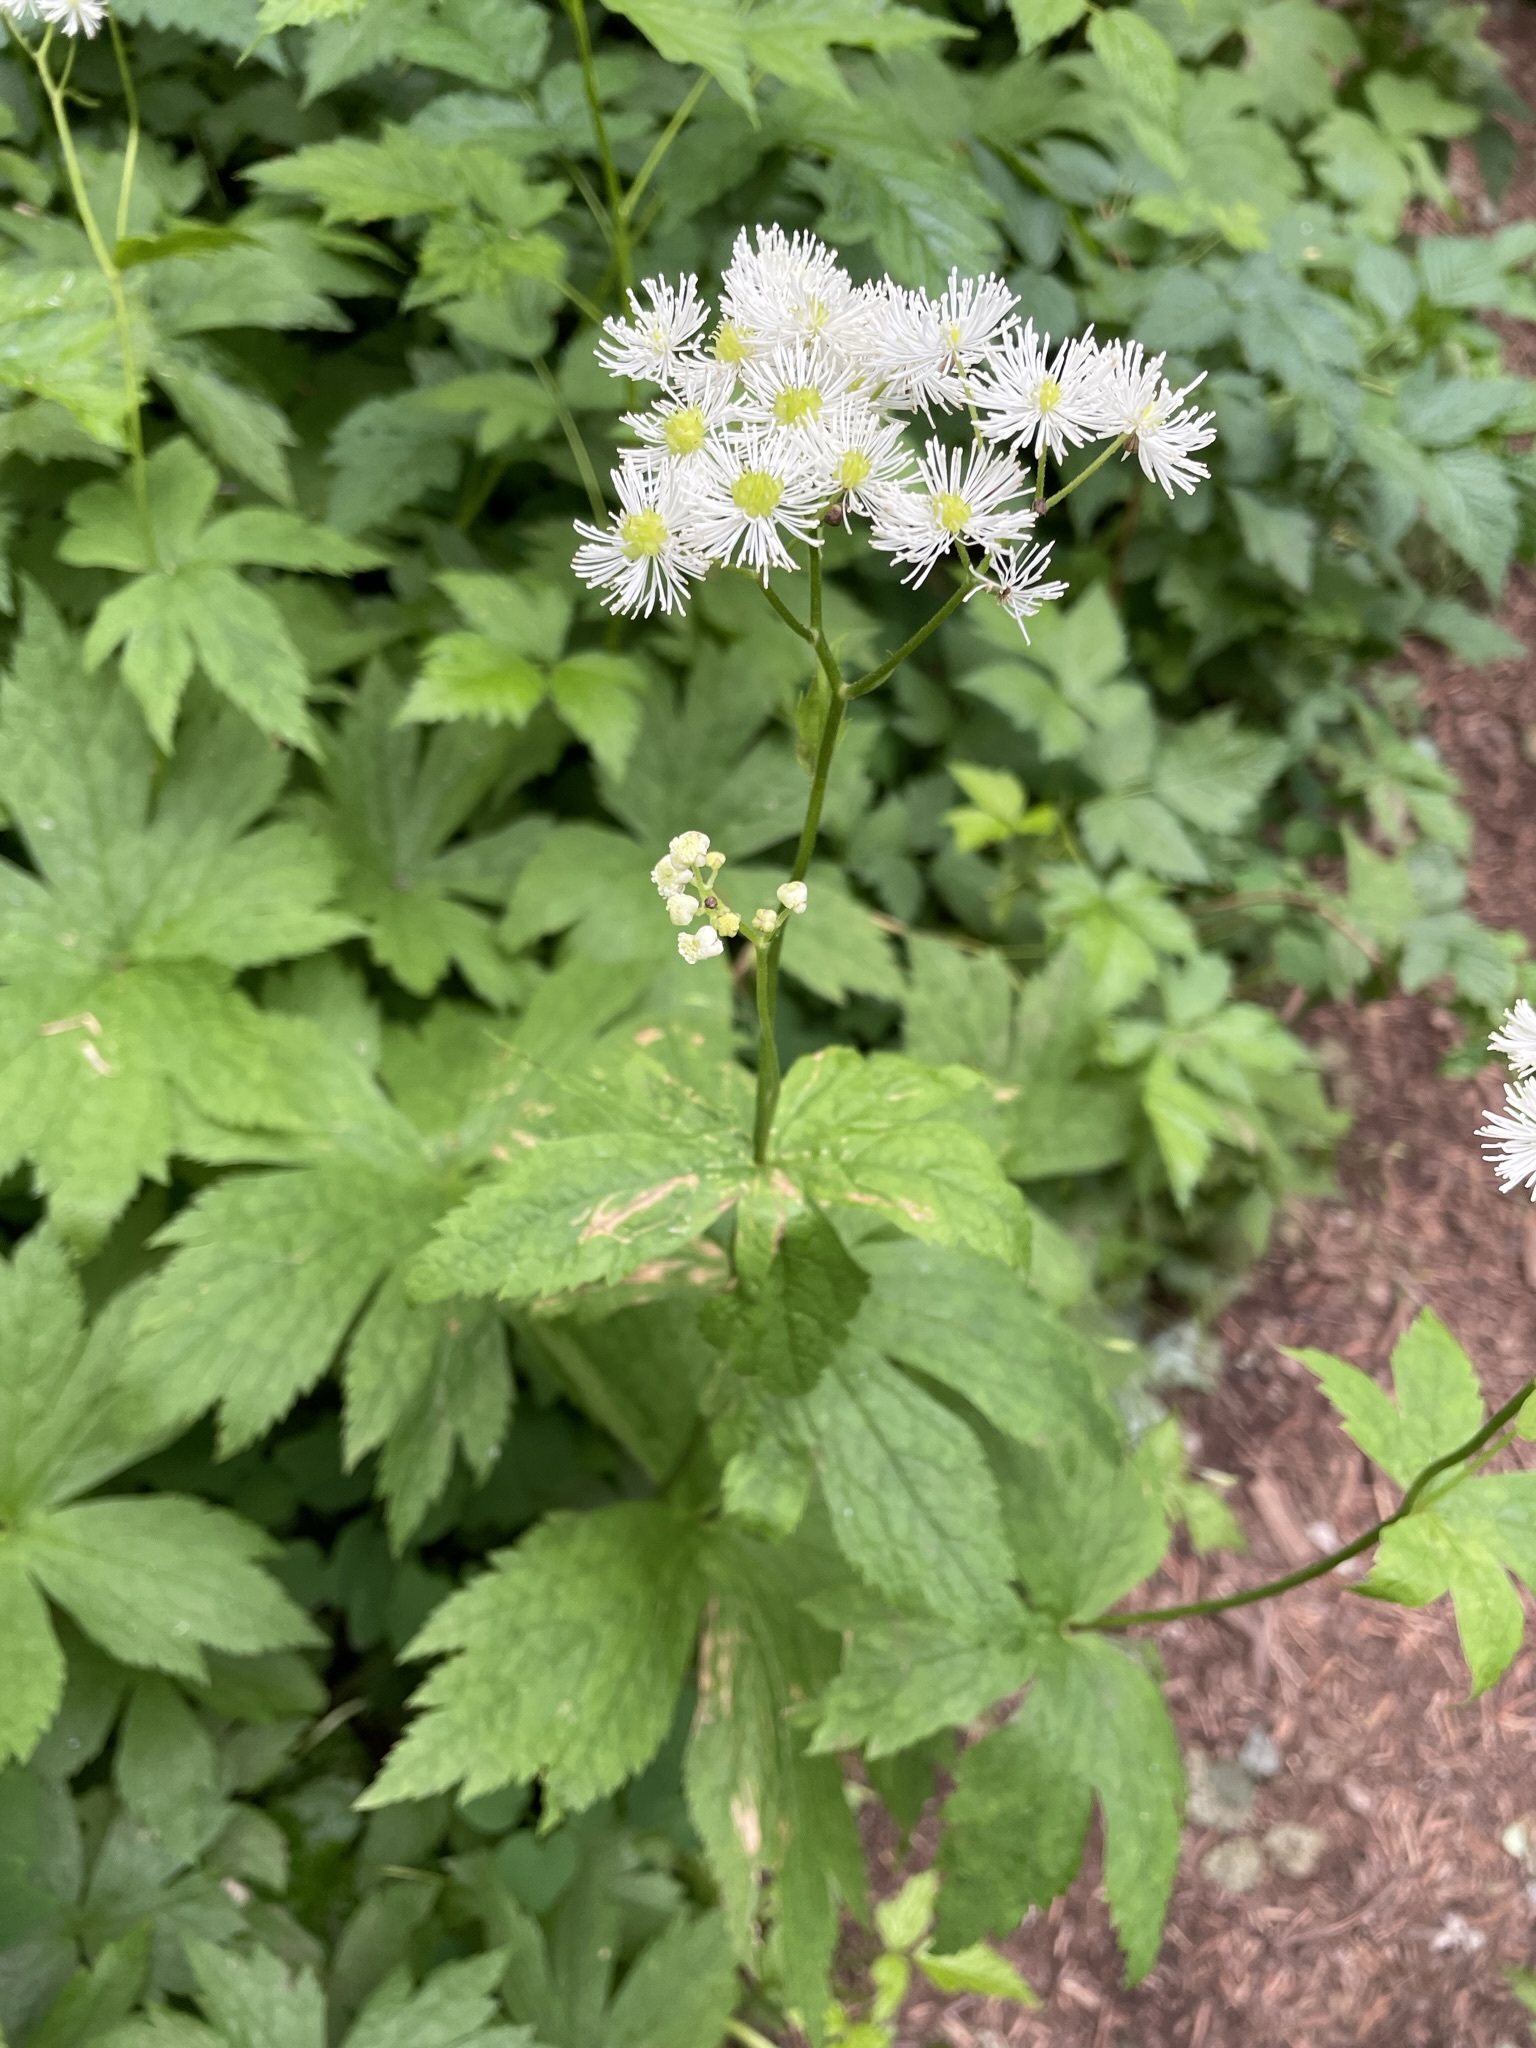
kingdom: Plantae
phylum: Tracheophyta
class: Magnoliopsida
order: Ranunculales
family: Ranunculaceae
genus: Trautvetteria
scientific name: Trautvetteria carolinensis
